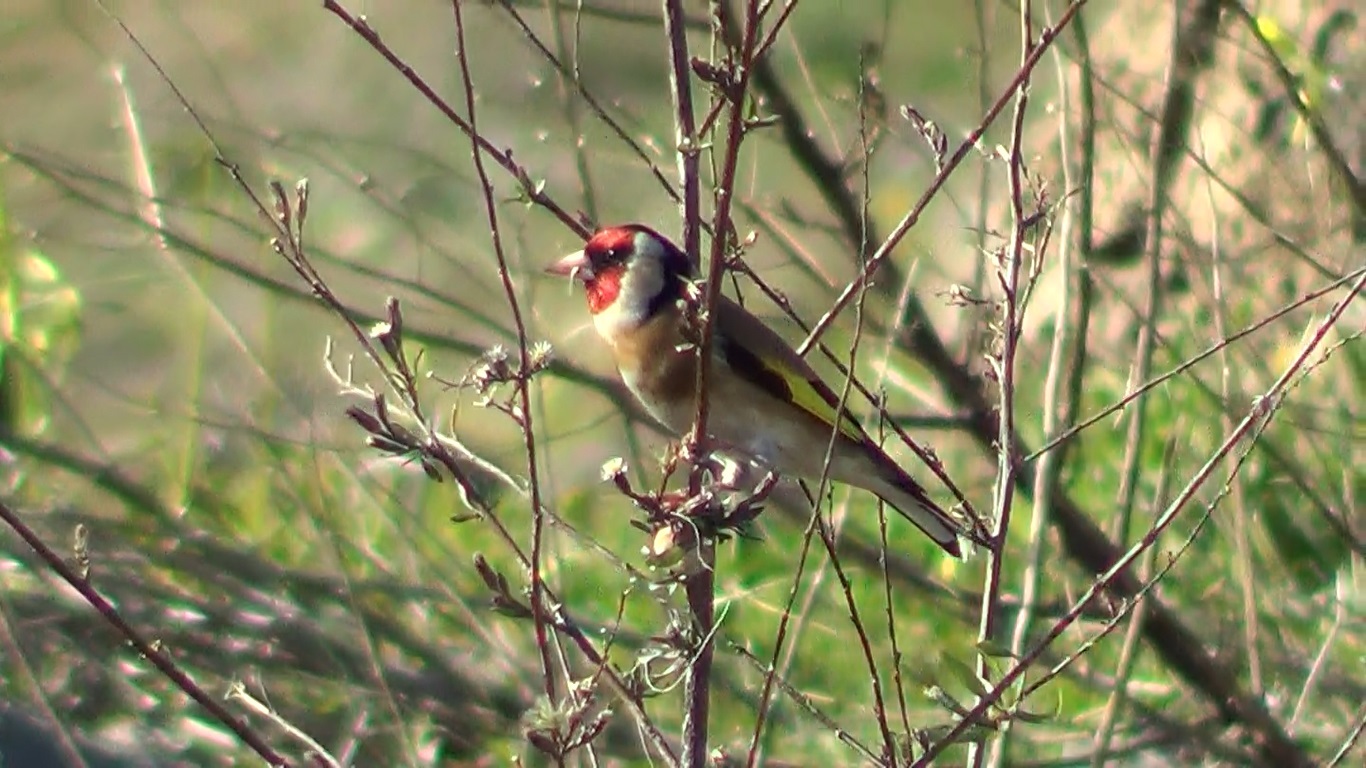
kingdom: Animalia
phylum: Chordata
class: Aves
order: Passeriformes
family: Fringillidae
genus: Carduelis
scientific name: Carduelis carduelis
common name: European goldfinch
